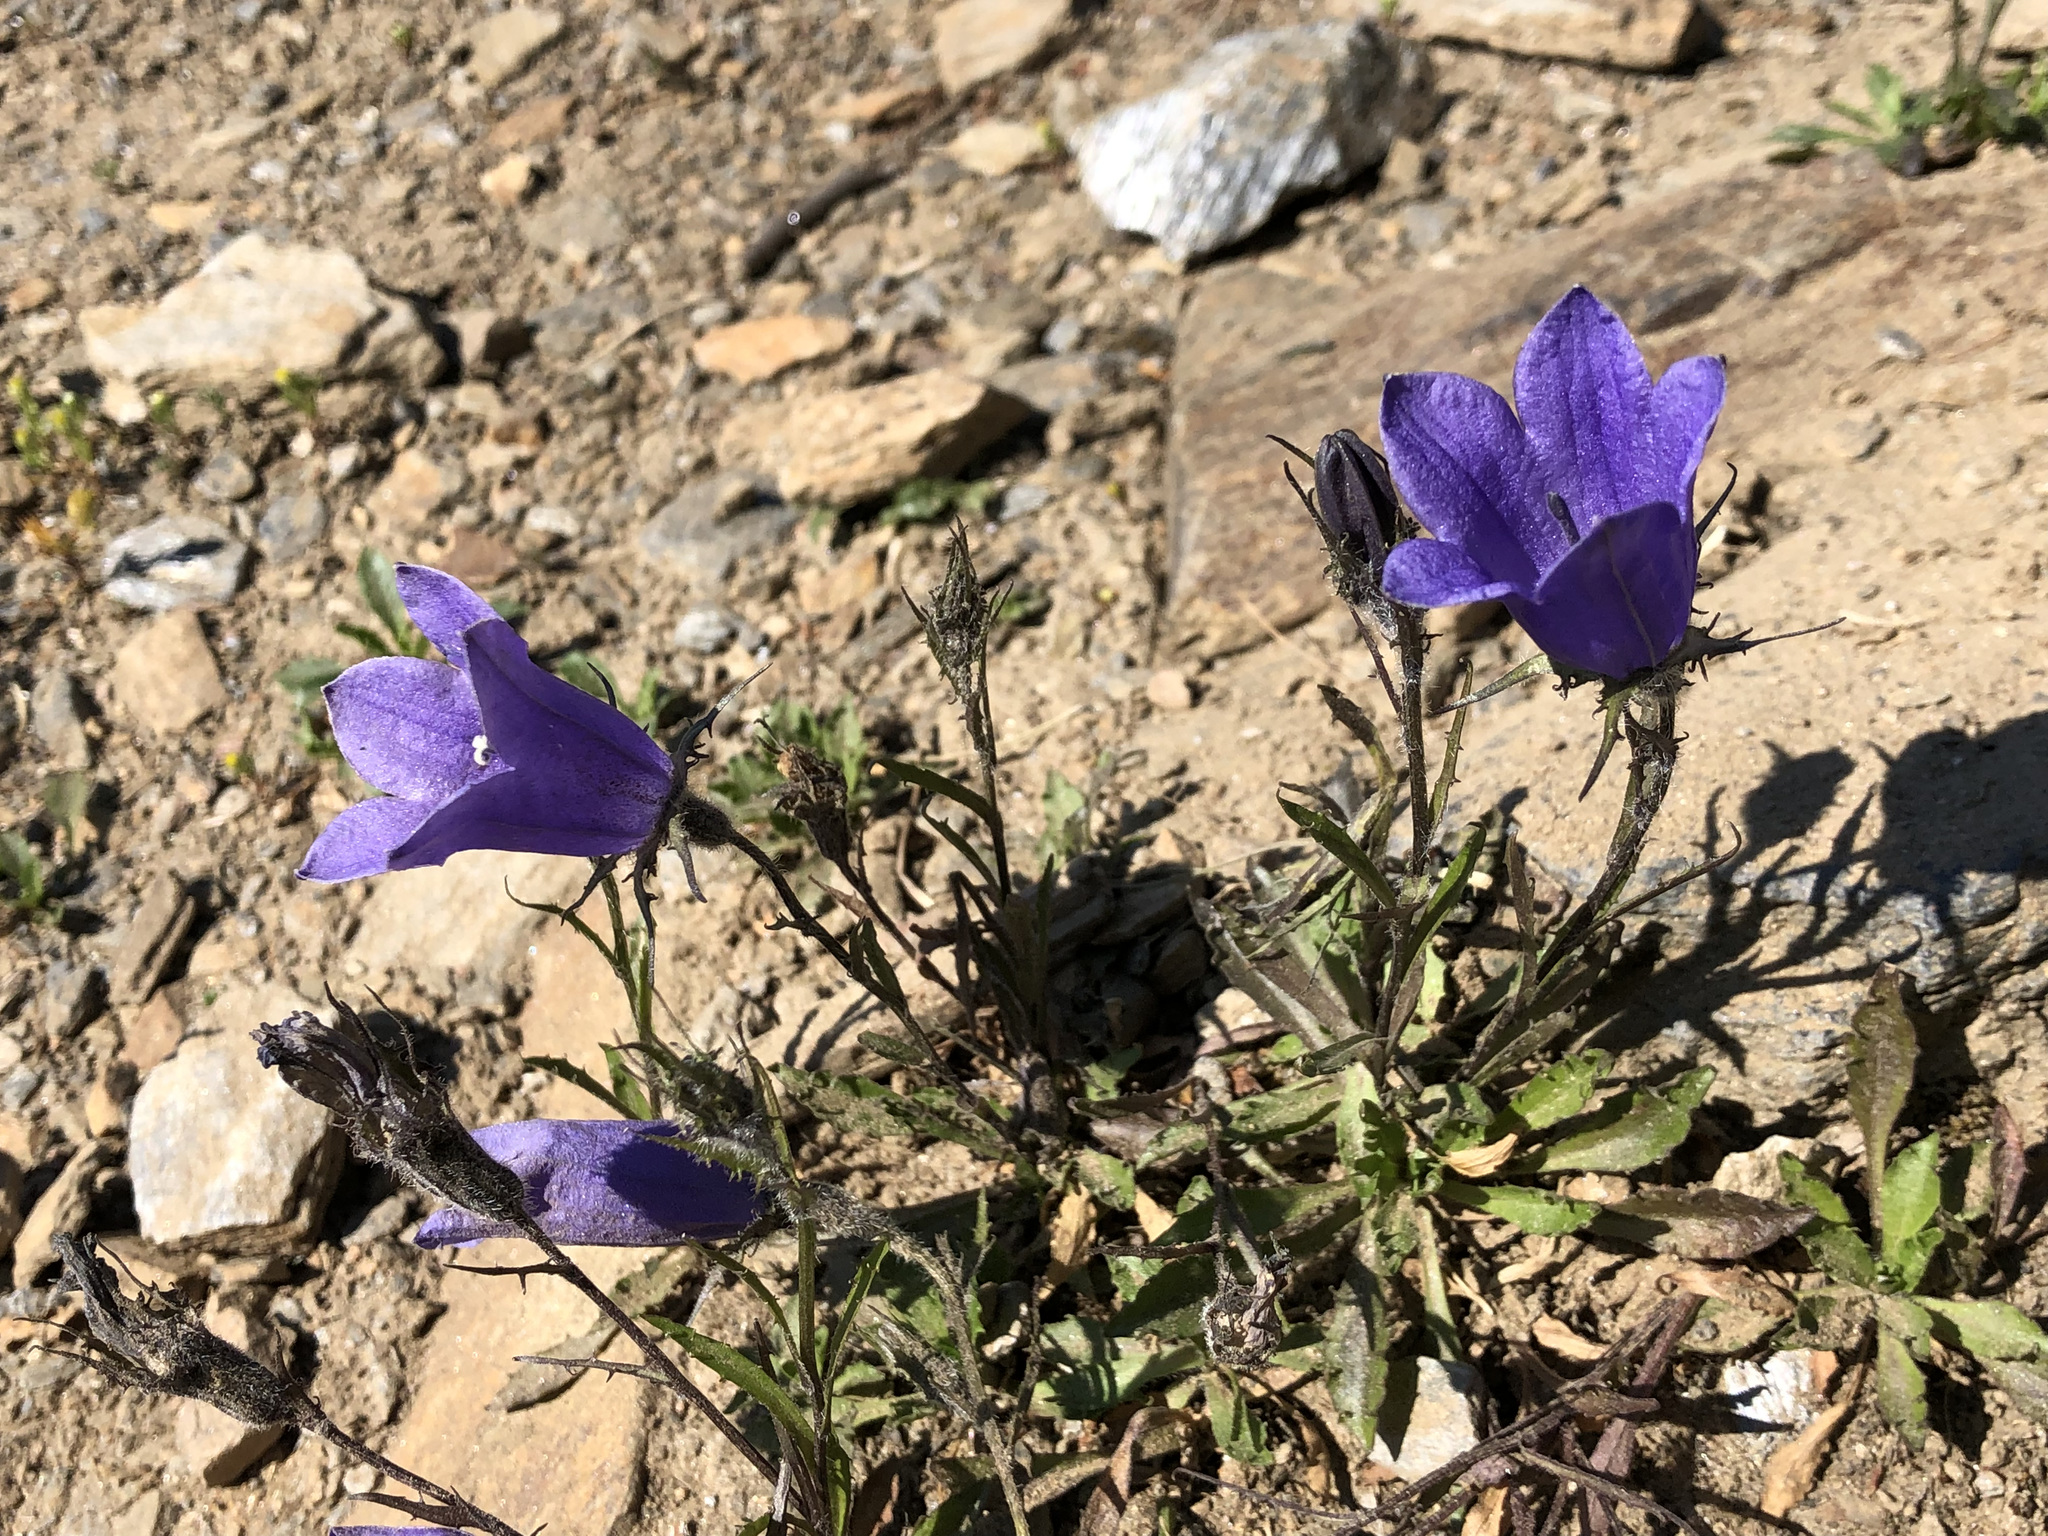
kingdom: Plantae
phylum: Tracheophyta
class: Magnoliopsida
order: Asterales
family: Campanulaceae
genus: Campanula
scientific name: Campanula lasiocarpa
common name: Mountain harebell
